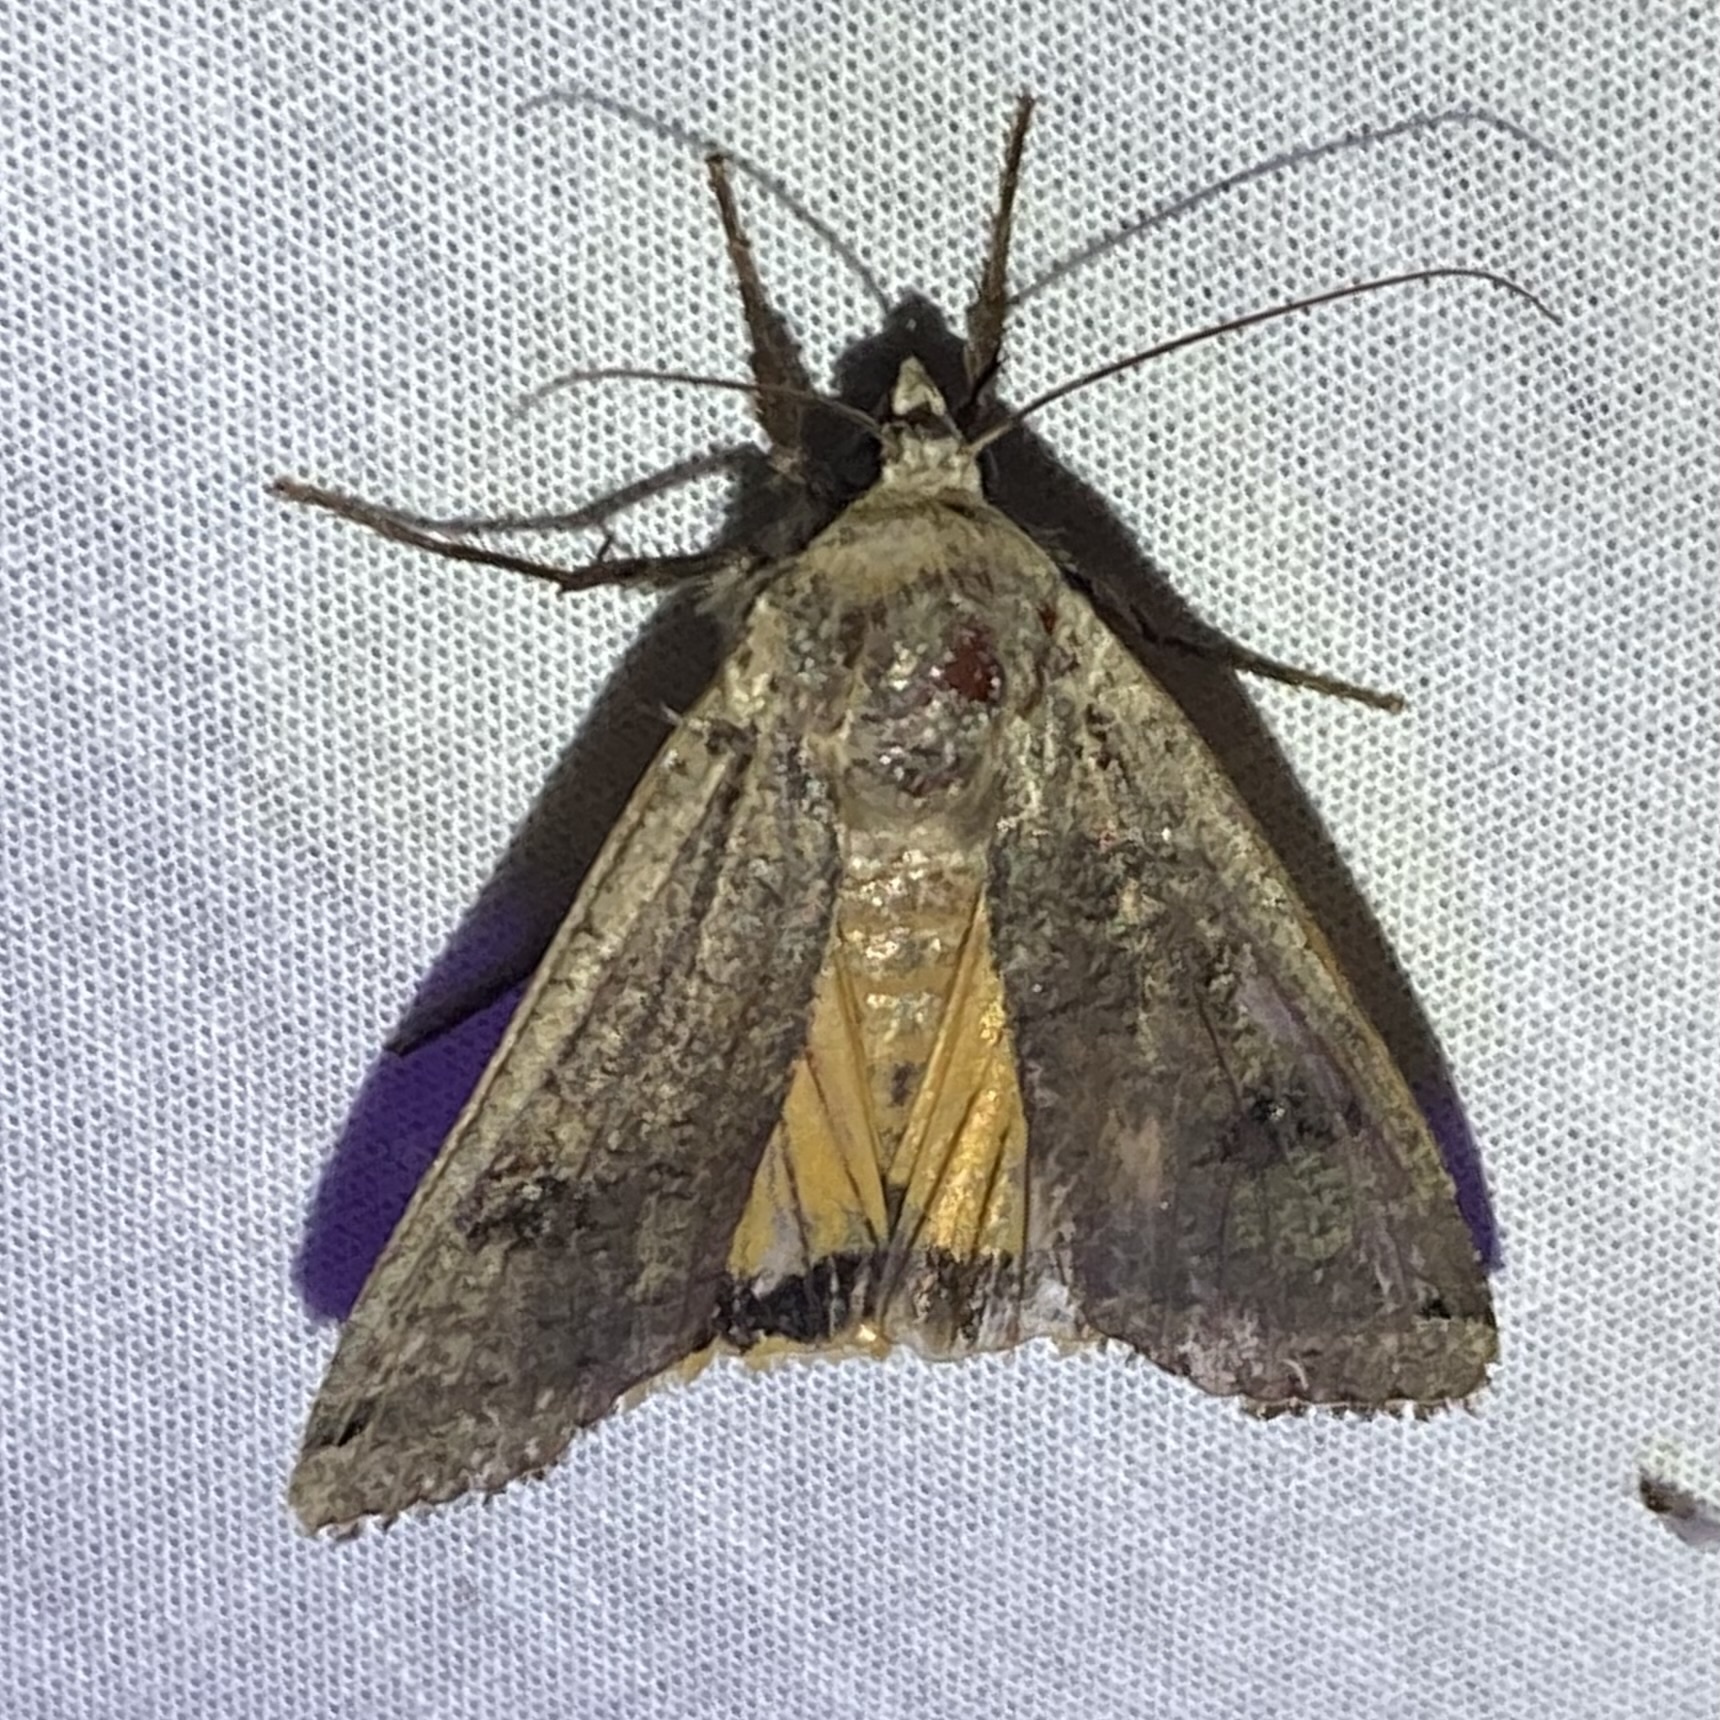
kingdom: Animalia
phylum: Arthropoda
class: Insecta
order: Lepidoptera
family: Noctuidae
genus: Noctua
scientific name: Noctua pronuba
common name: Large yellow underwing
